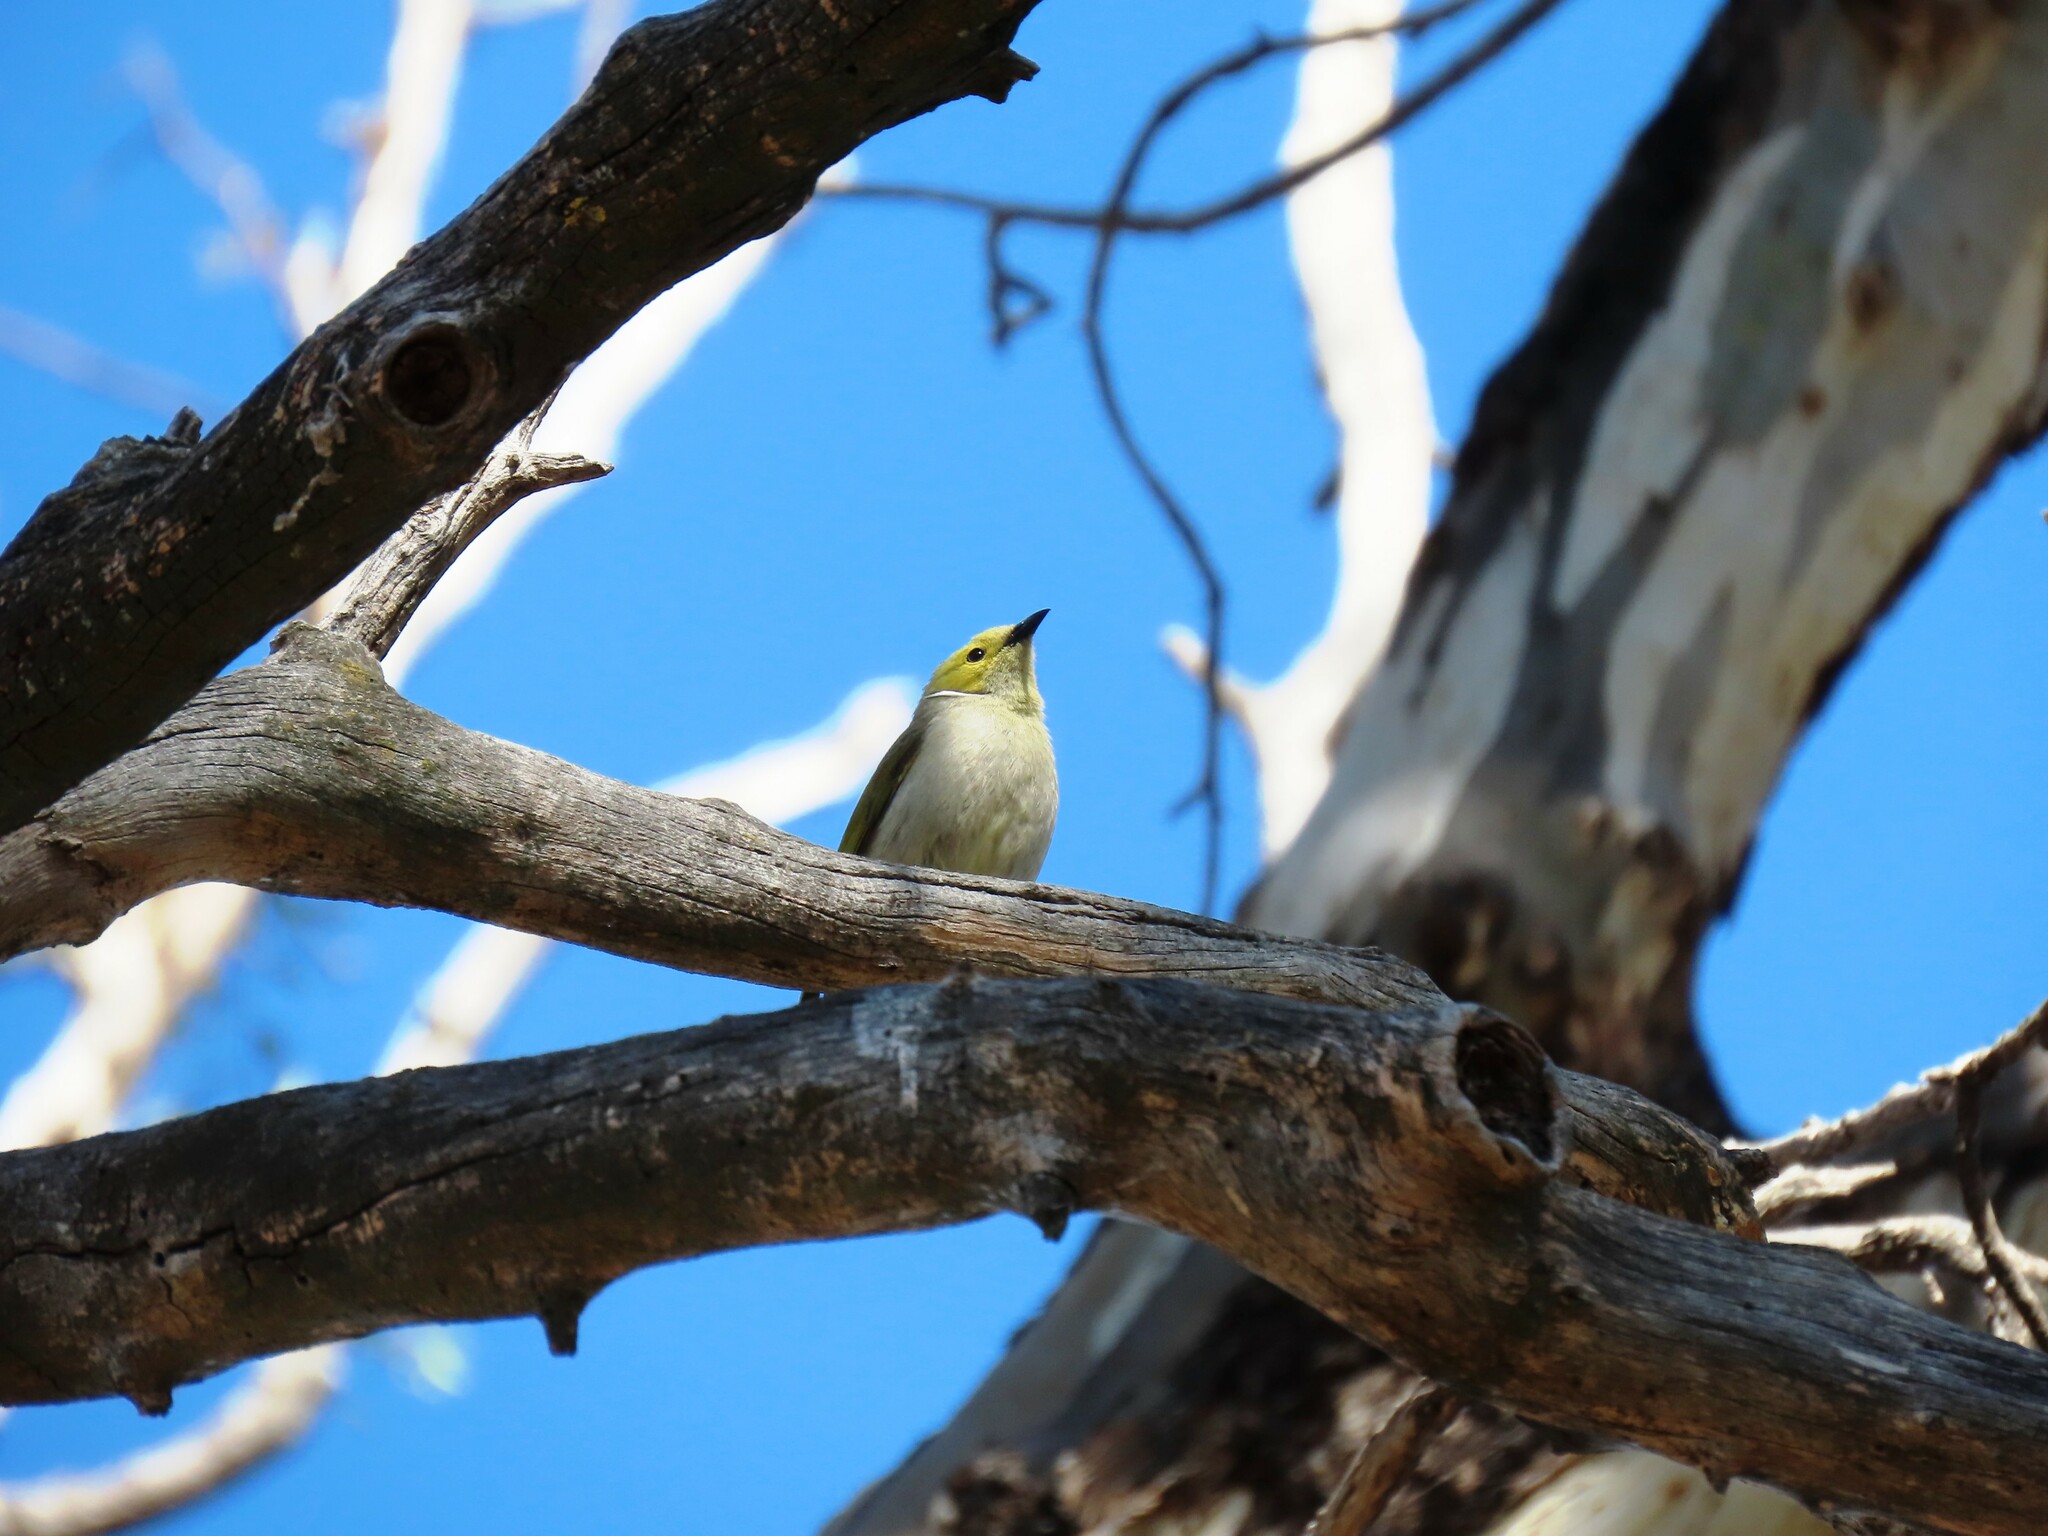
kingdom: Animalia
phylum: Chordata
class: Aves
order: Passeriformes
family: Meliphagidae
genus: Ptilotula
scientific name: Ptilotula penicillata
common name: White-plumed honeyeater
